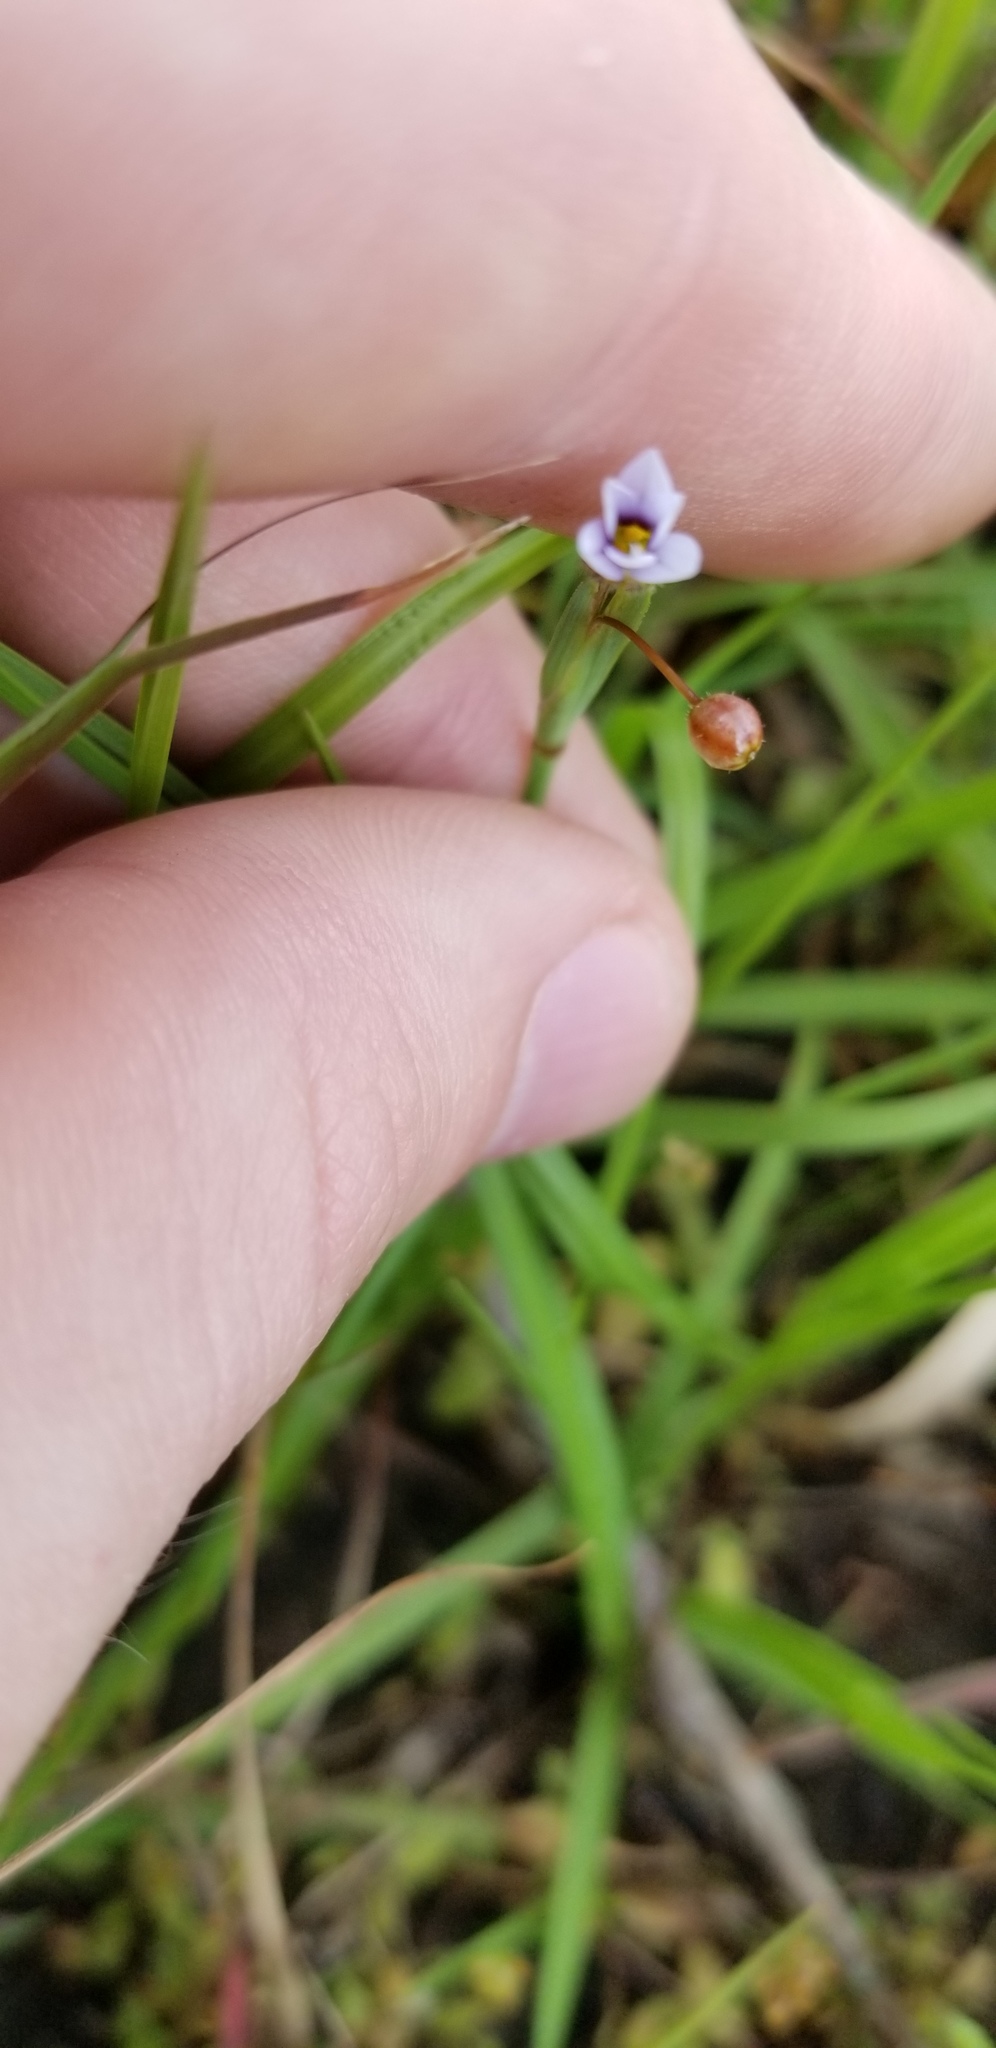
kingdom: Plantae
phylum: Tracheophyta
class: Liliopsida
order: Asparagales
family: Iridaceae
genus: Sisyrinchium
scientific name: Sisyrinchium micranthum
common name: Bermuda pigroot
